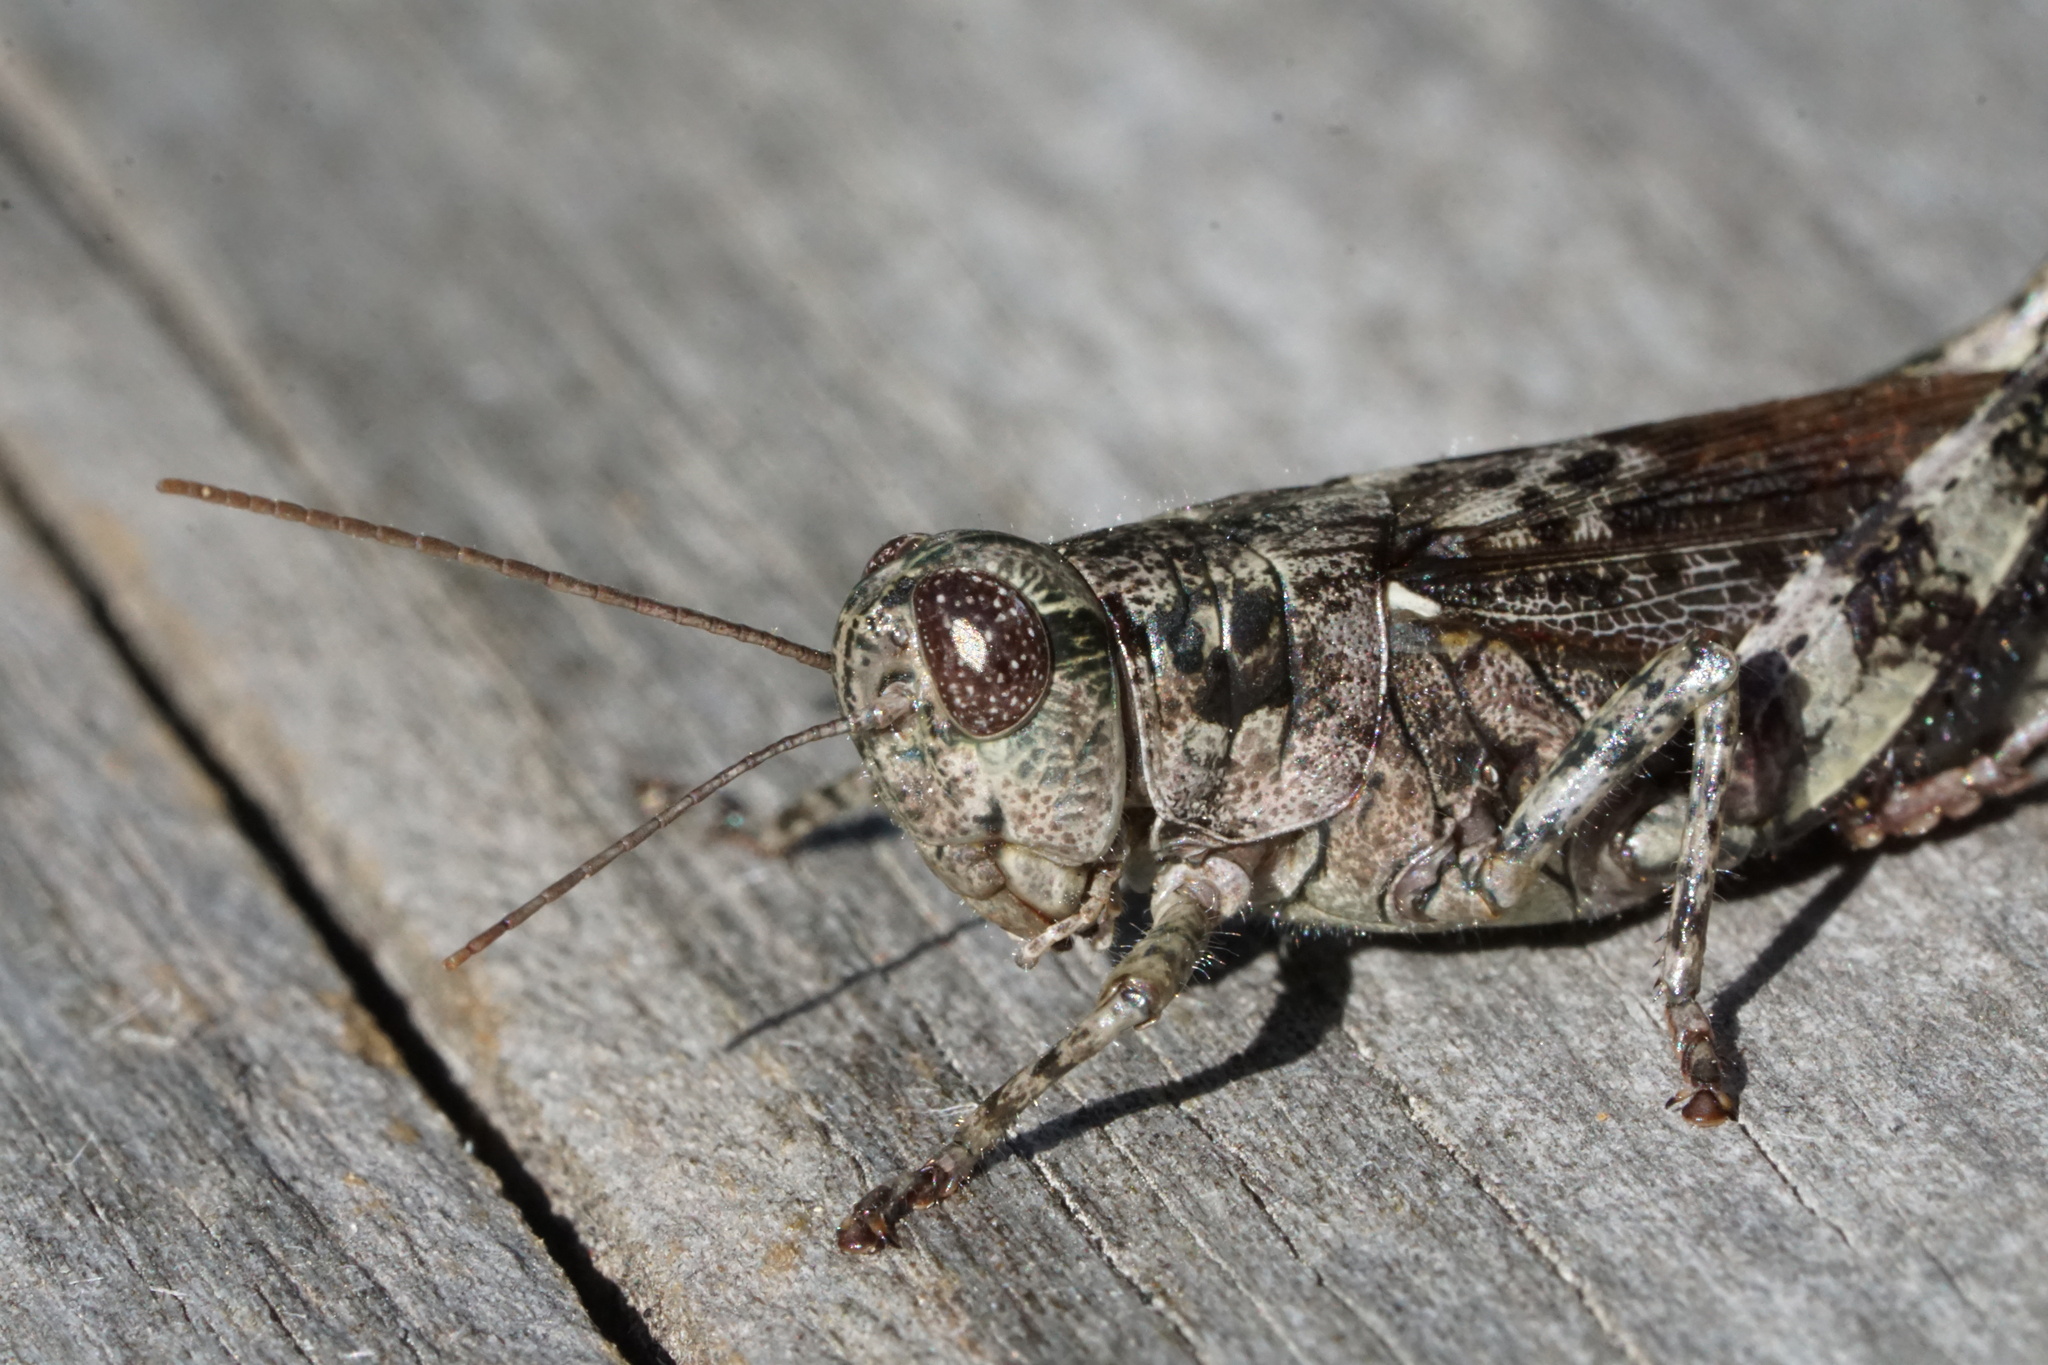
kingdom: Animalia
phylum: Arthropoda
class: Insecta
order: Orthoptera
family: Acrididae
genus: Melanoplus
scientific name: Melanoplus punctulatus
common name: Pine-tree spur-throat grasshopper
